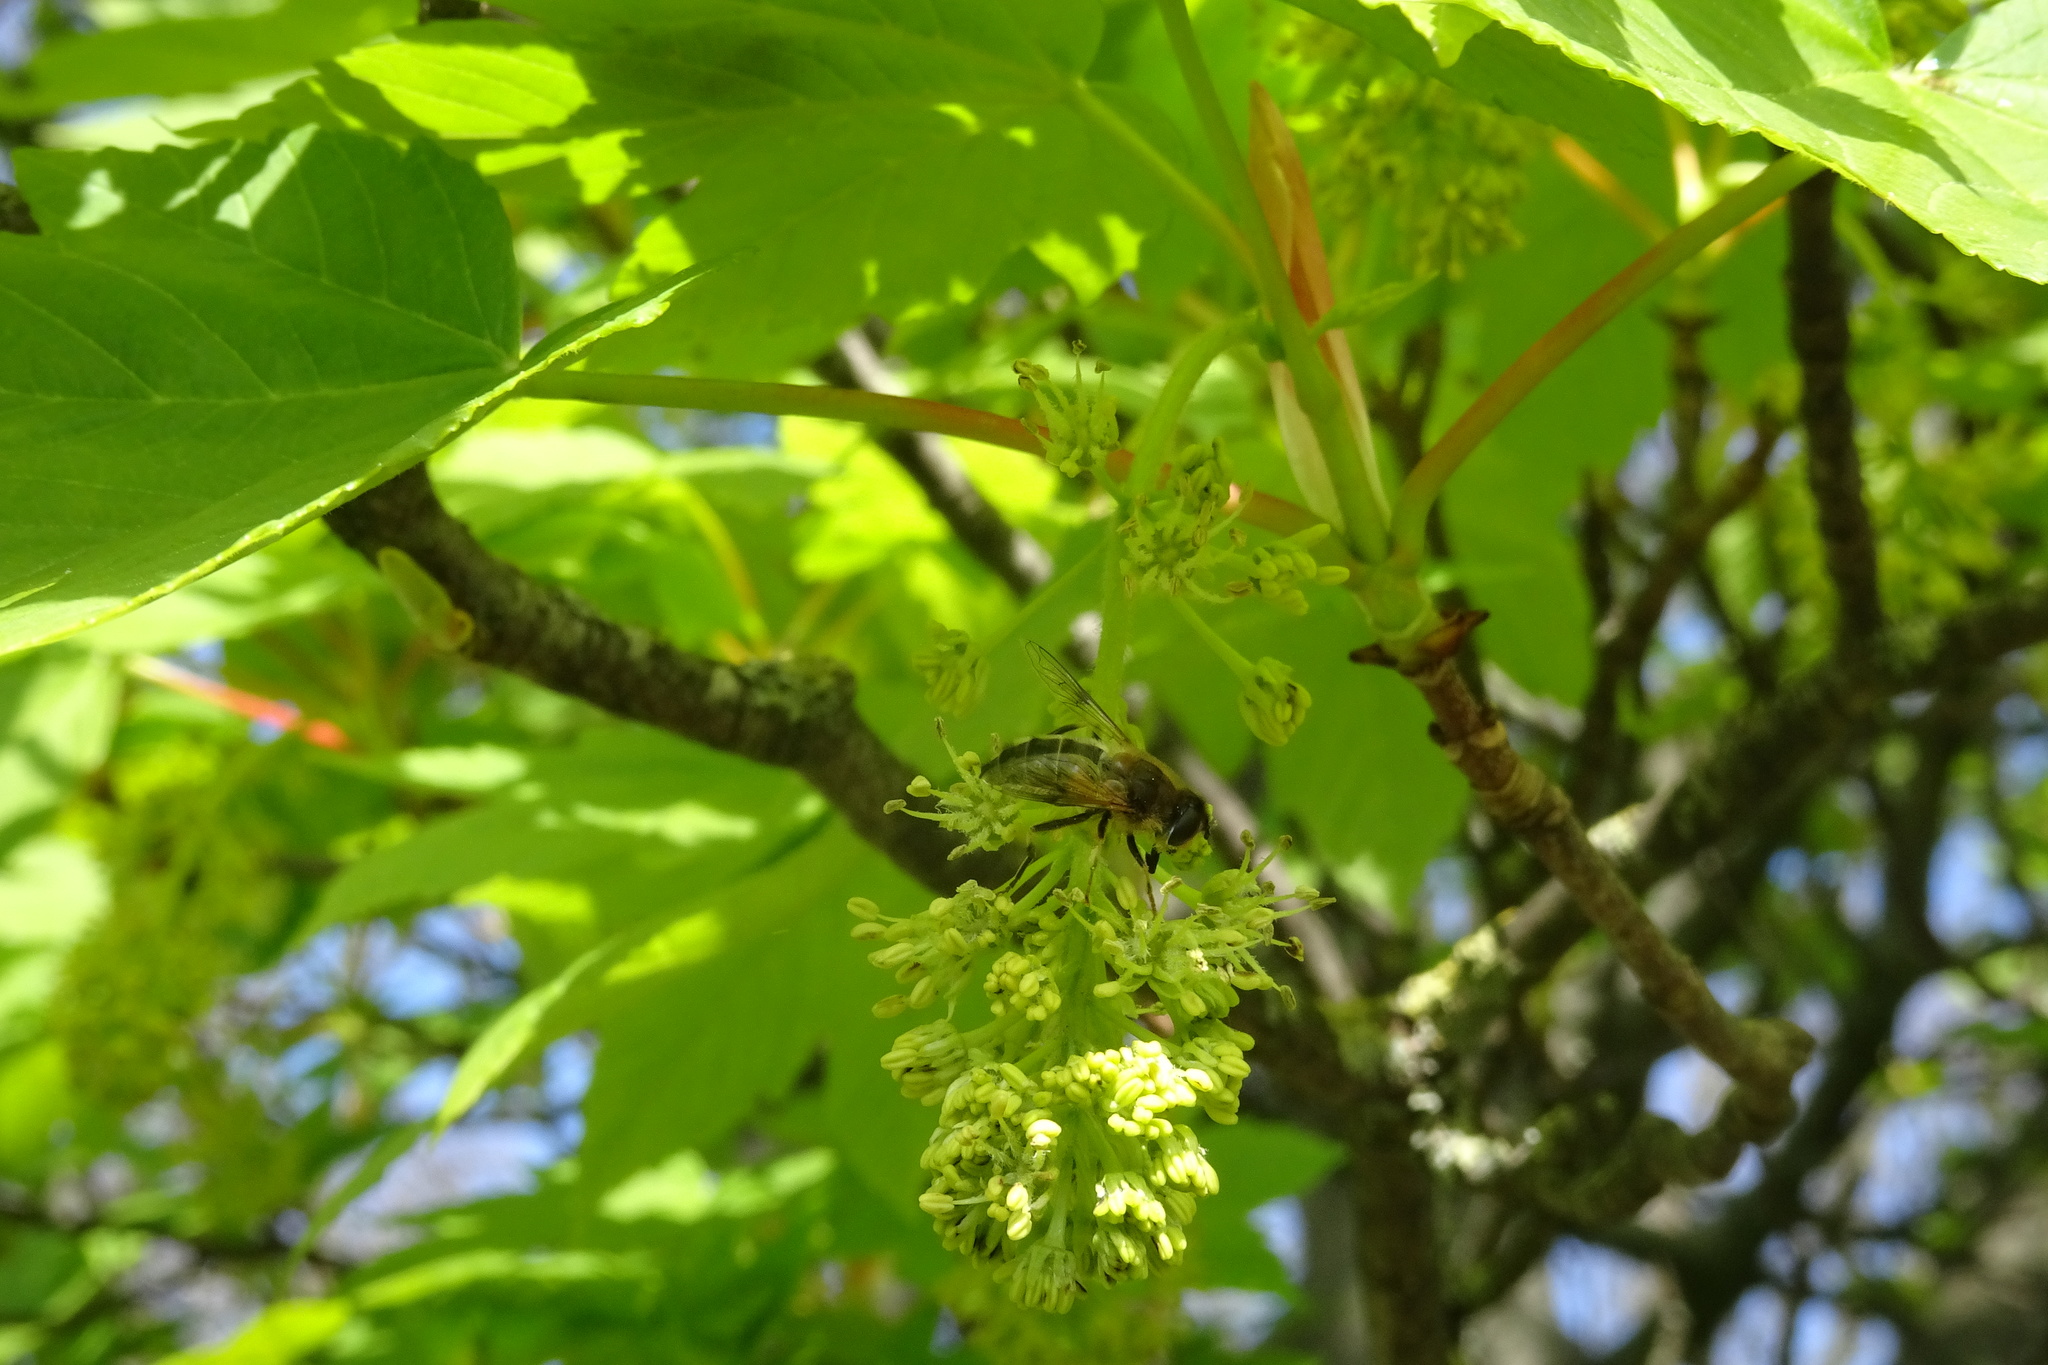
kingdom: Animalia
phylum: Arthropoda
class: Insecta
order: Diptera
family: Syrphidae
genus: Eristalis
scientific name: Eristalis pertinax
